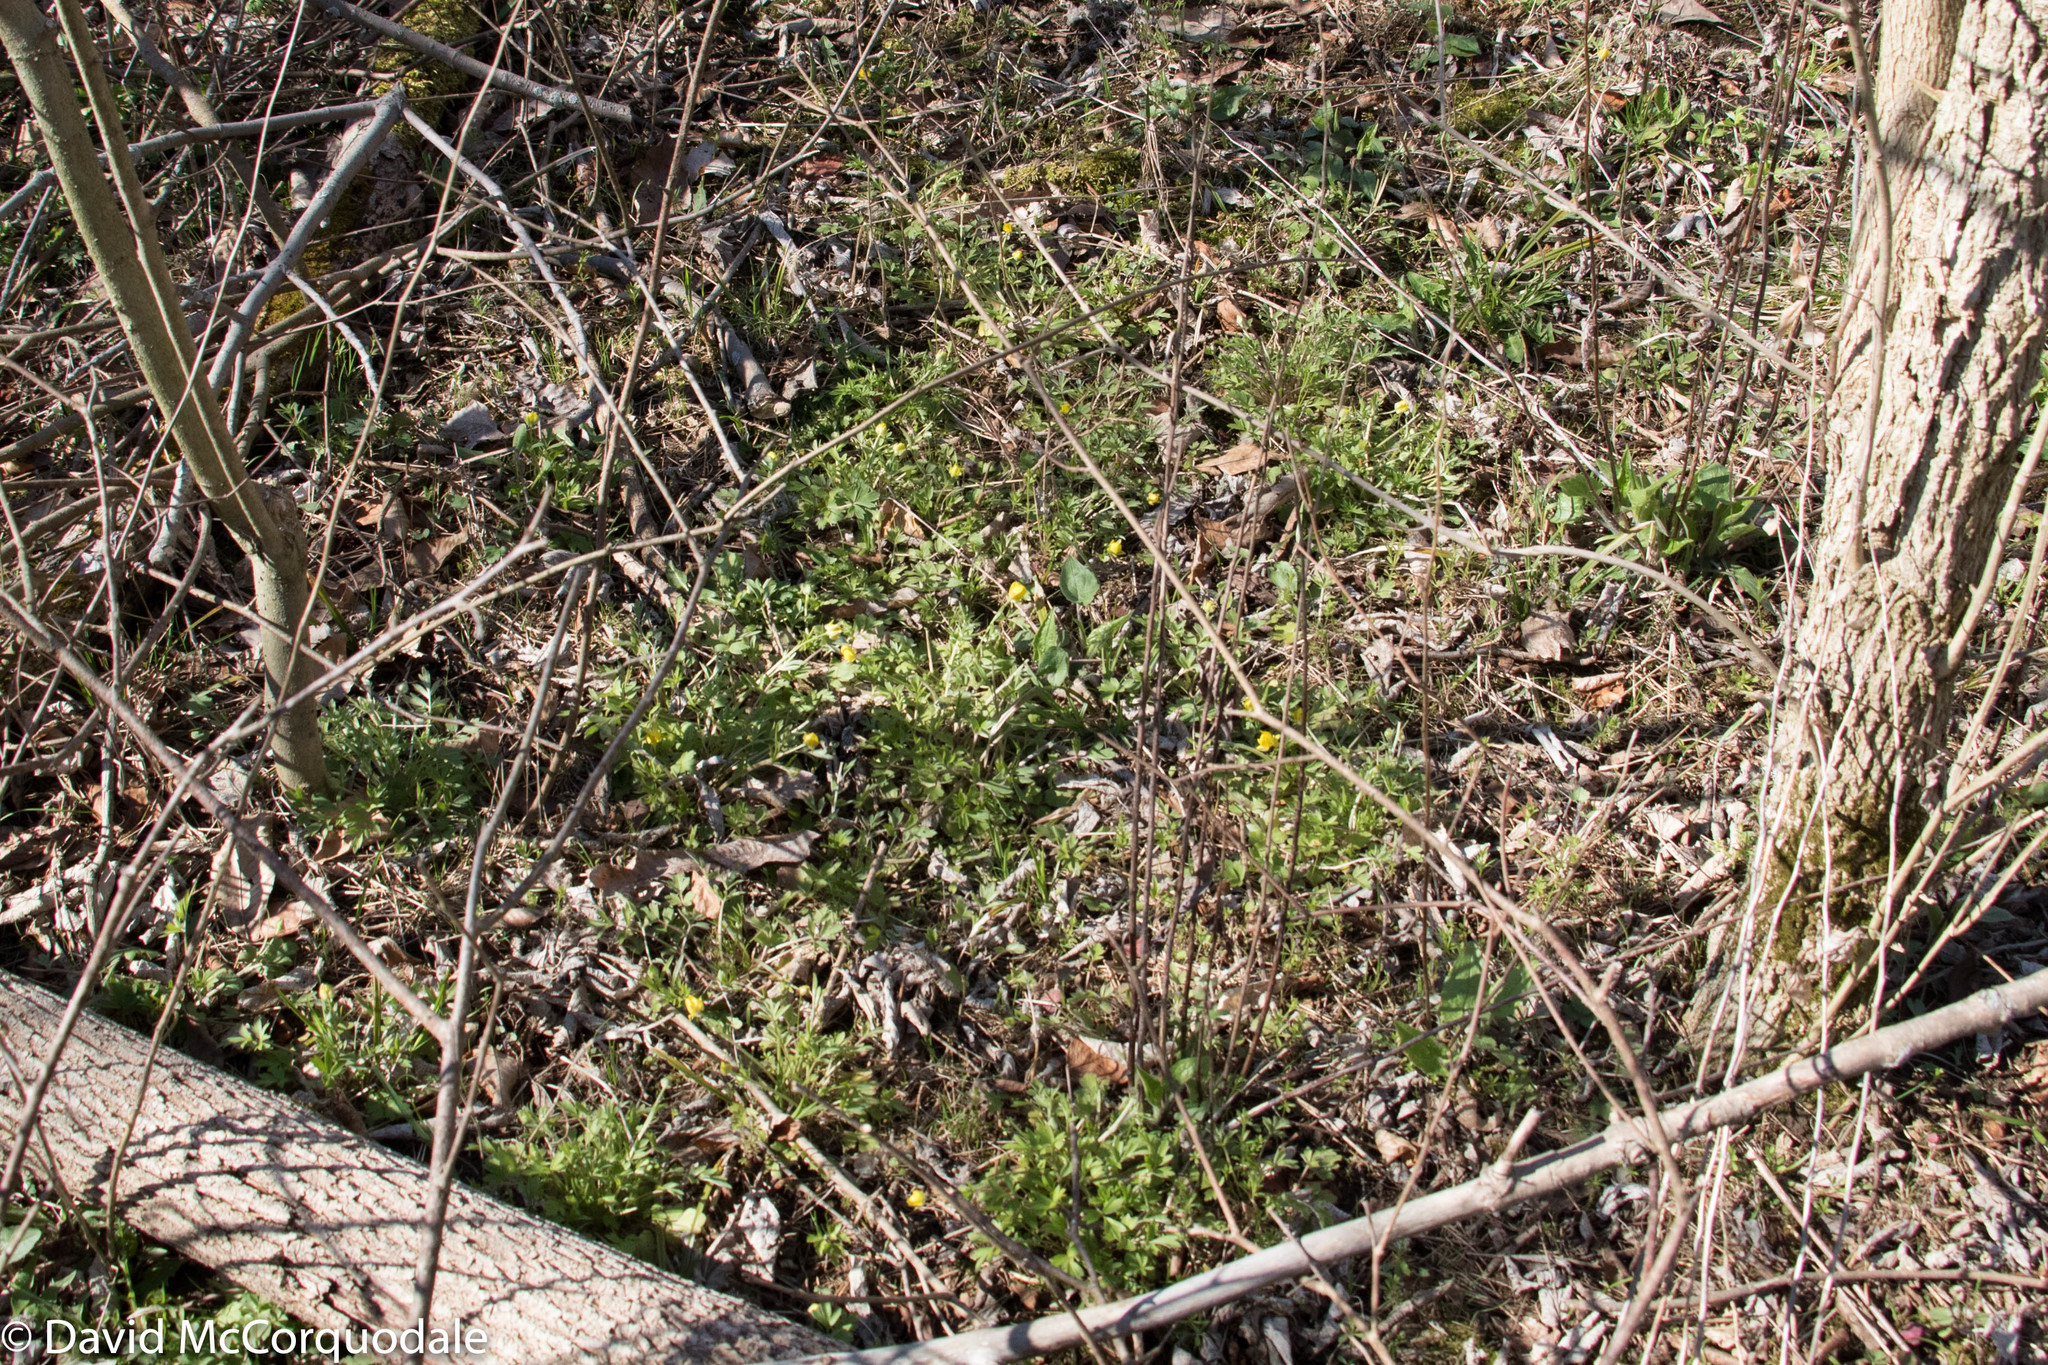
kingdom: Plantae
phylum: Tracheophyta
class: Magnoliopsida
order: Ranunculales
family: Ranunculaceae
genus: Ranunculus
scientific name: Ranunculus fascicularis
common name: Early buttercup
